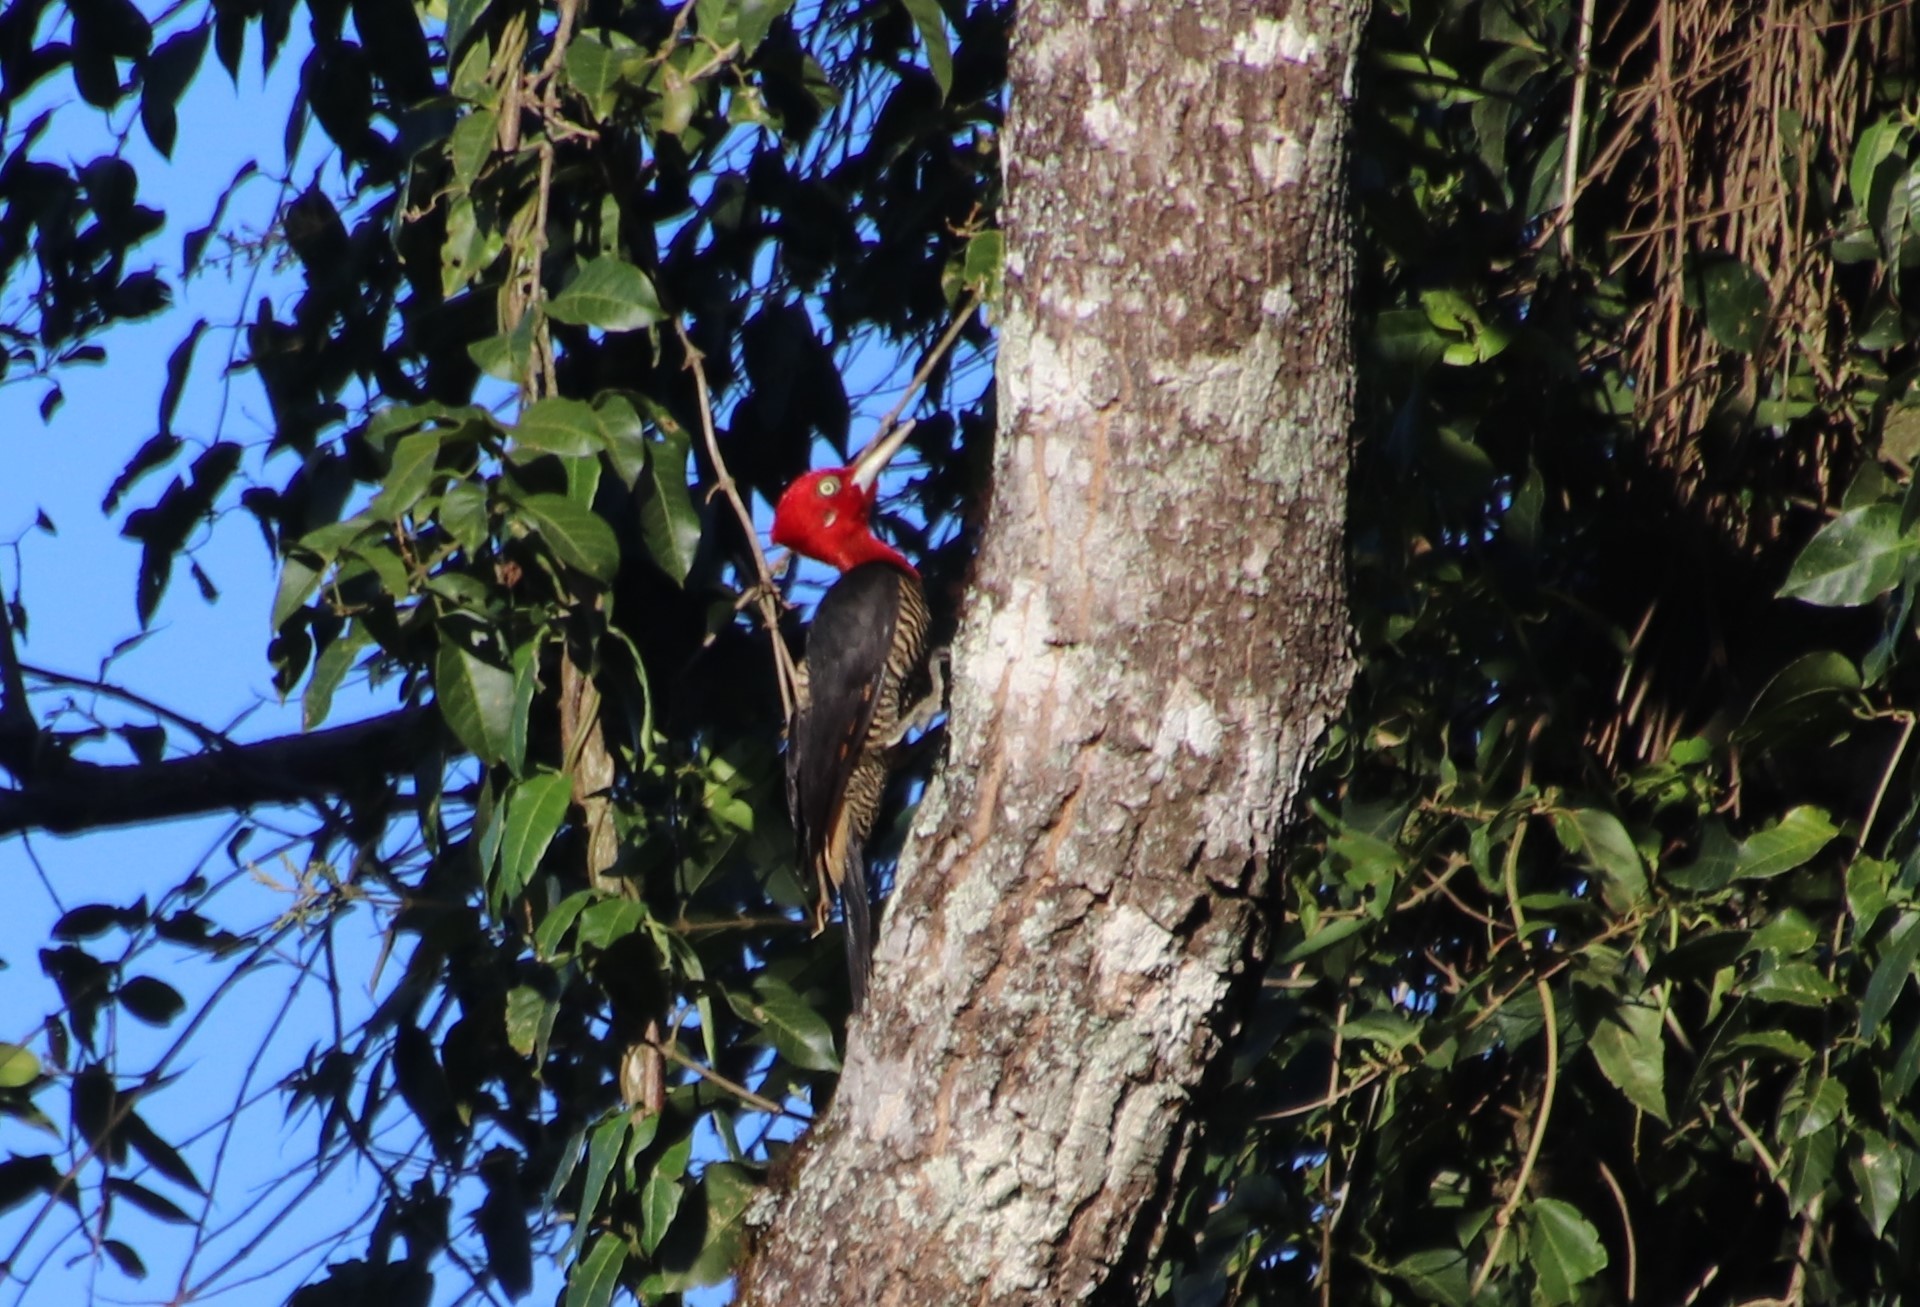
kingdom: Animalia
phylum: Chordata
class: Aves
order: Piciformes
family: Picidae
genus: Campephilus
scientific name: Campephilus robustus
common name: Robust woodpecker
